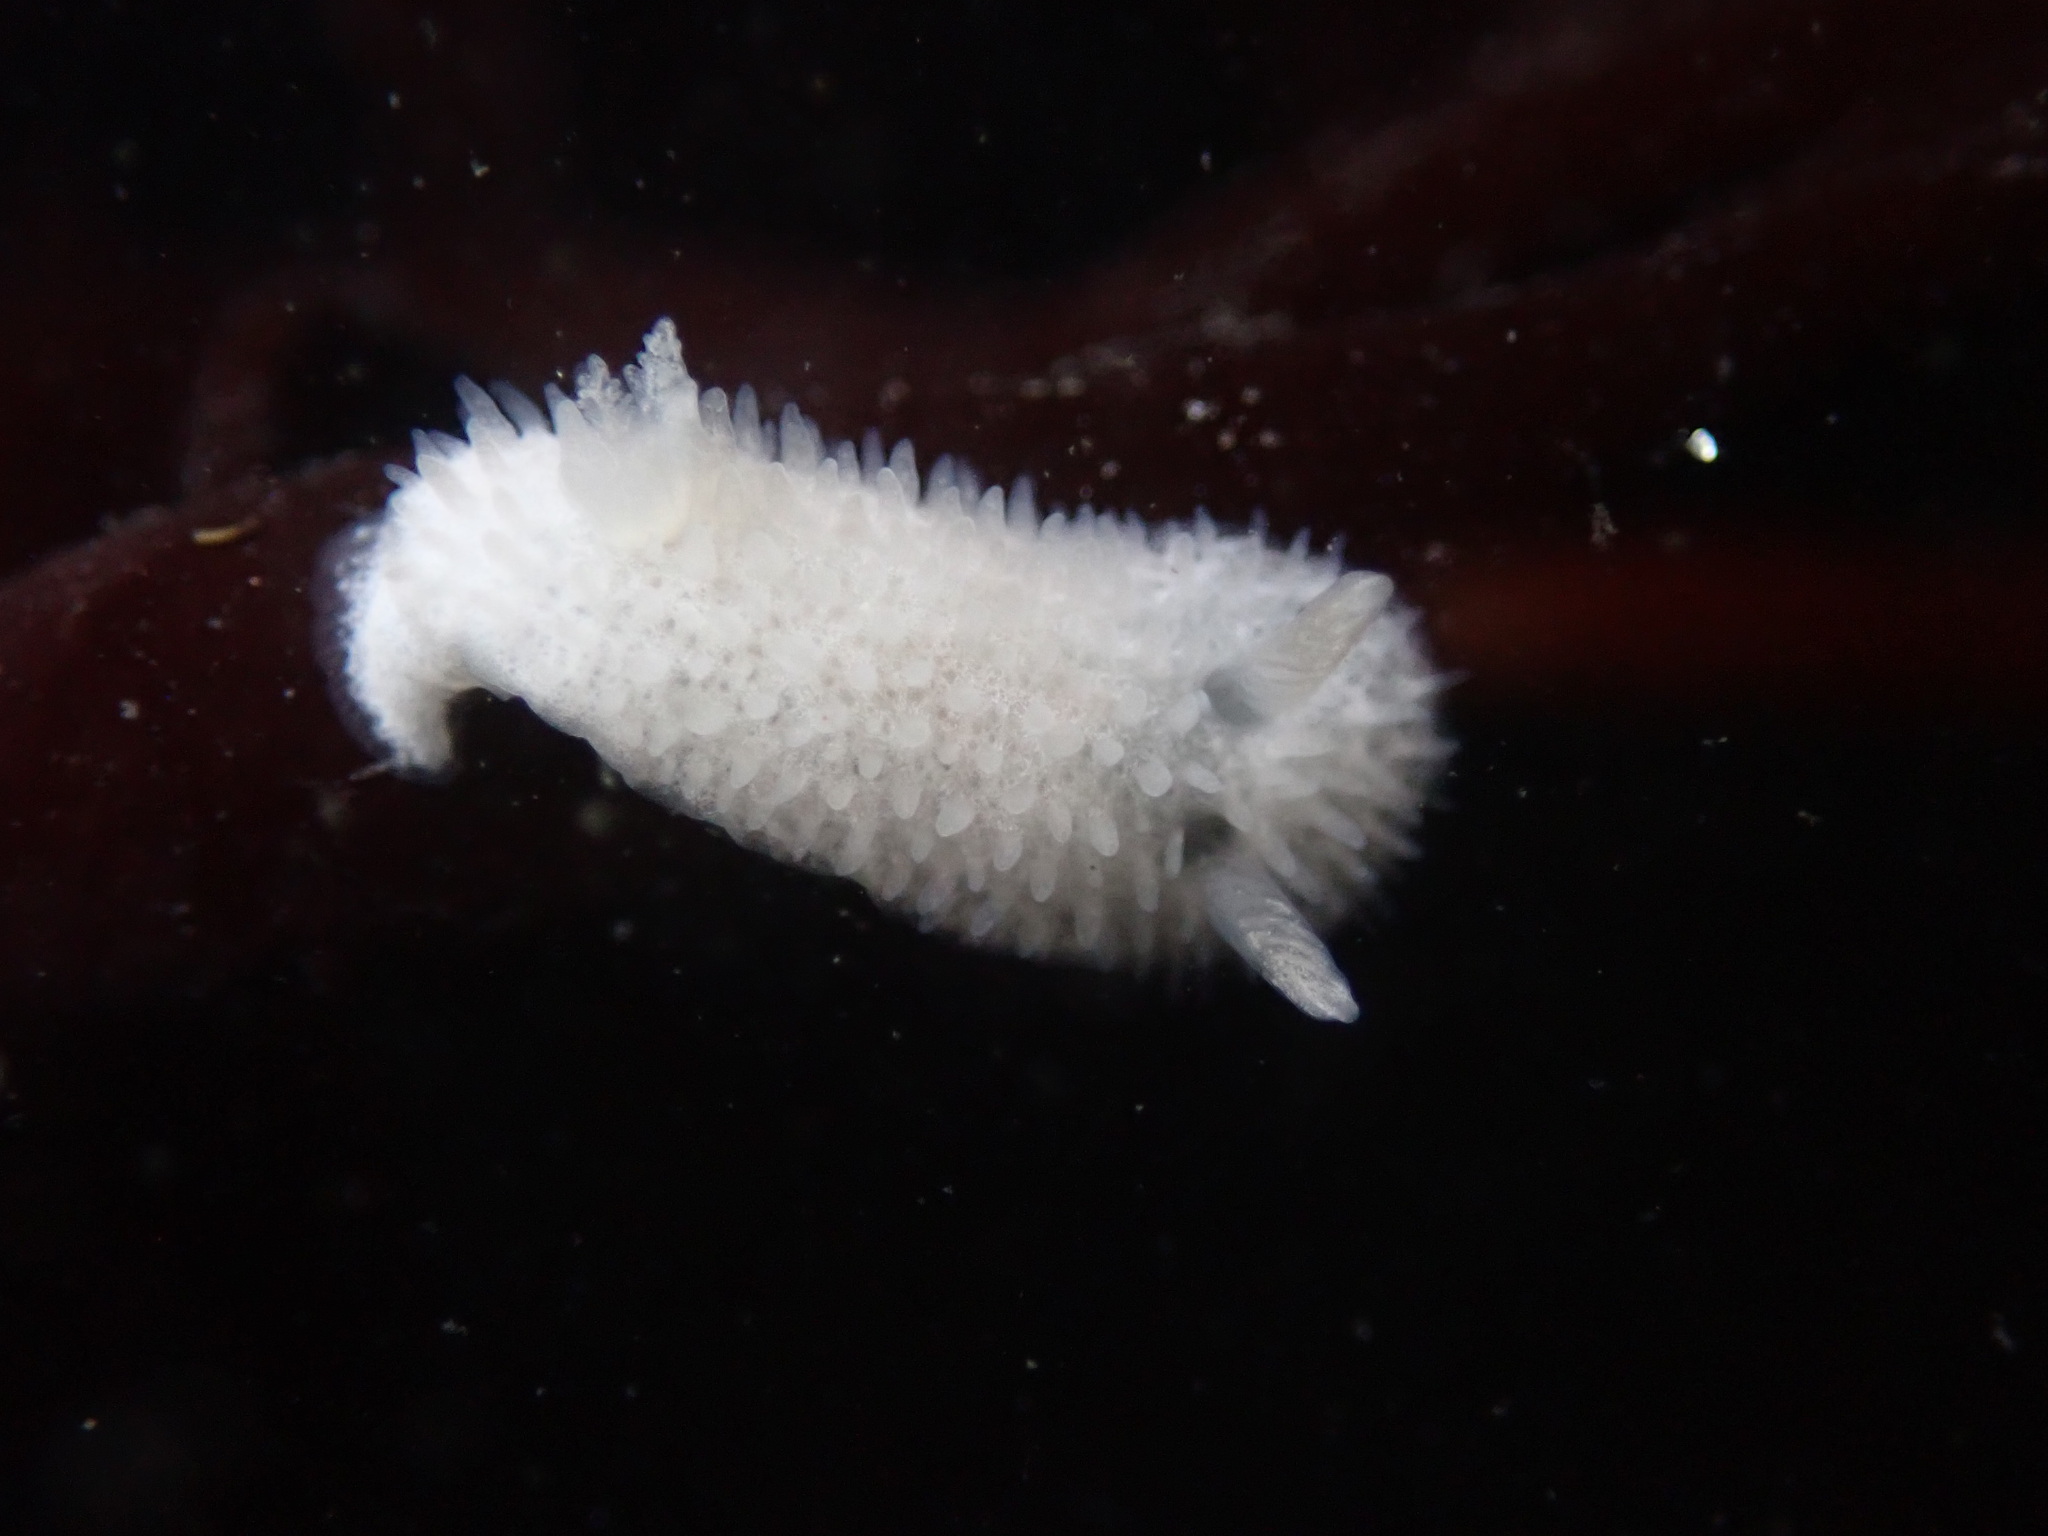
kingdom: Animalia
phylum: Mollusca
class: Gastropoda
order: Nudibranchia
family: Calycidorididae
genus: Diaphorodoris
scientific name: Diaphorodoris lirulatocauda
